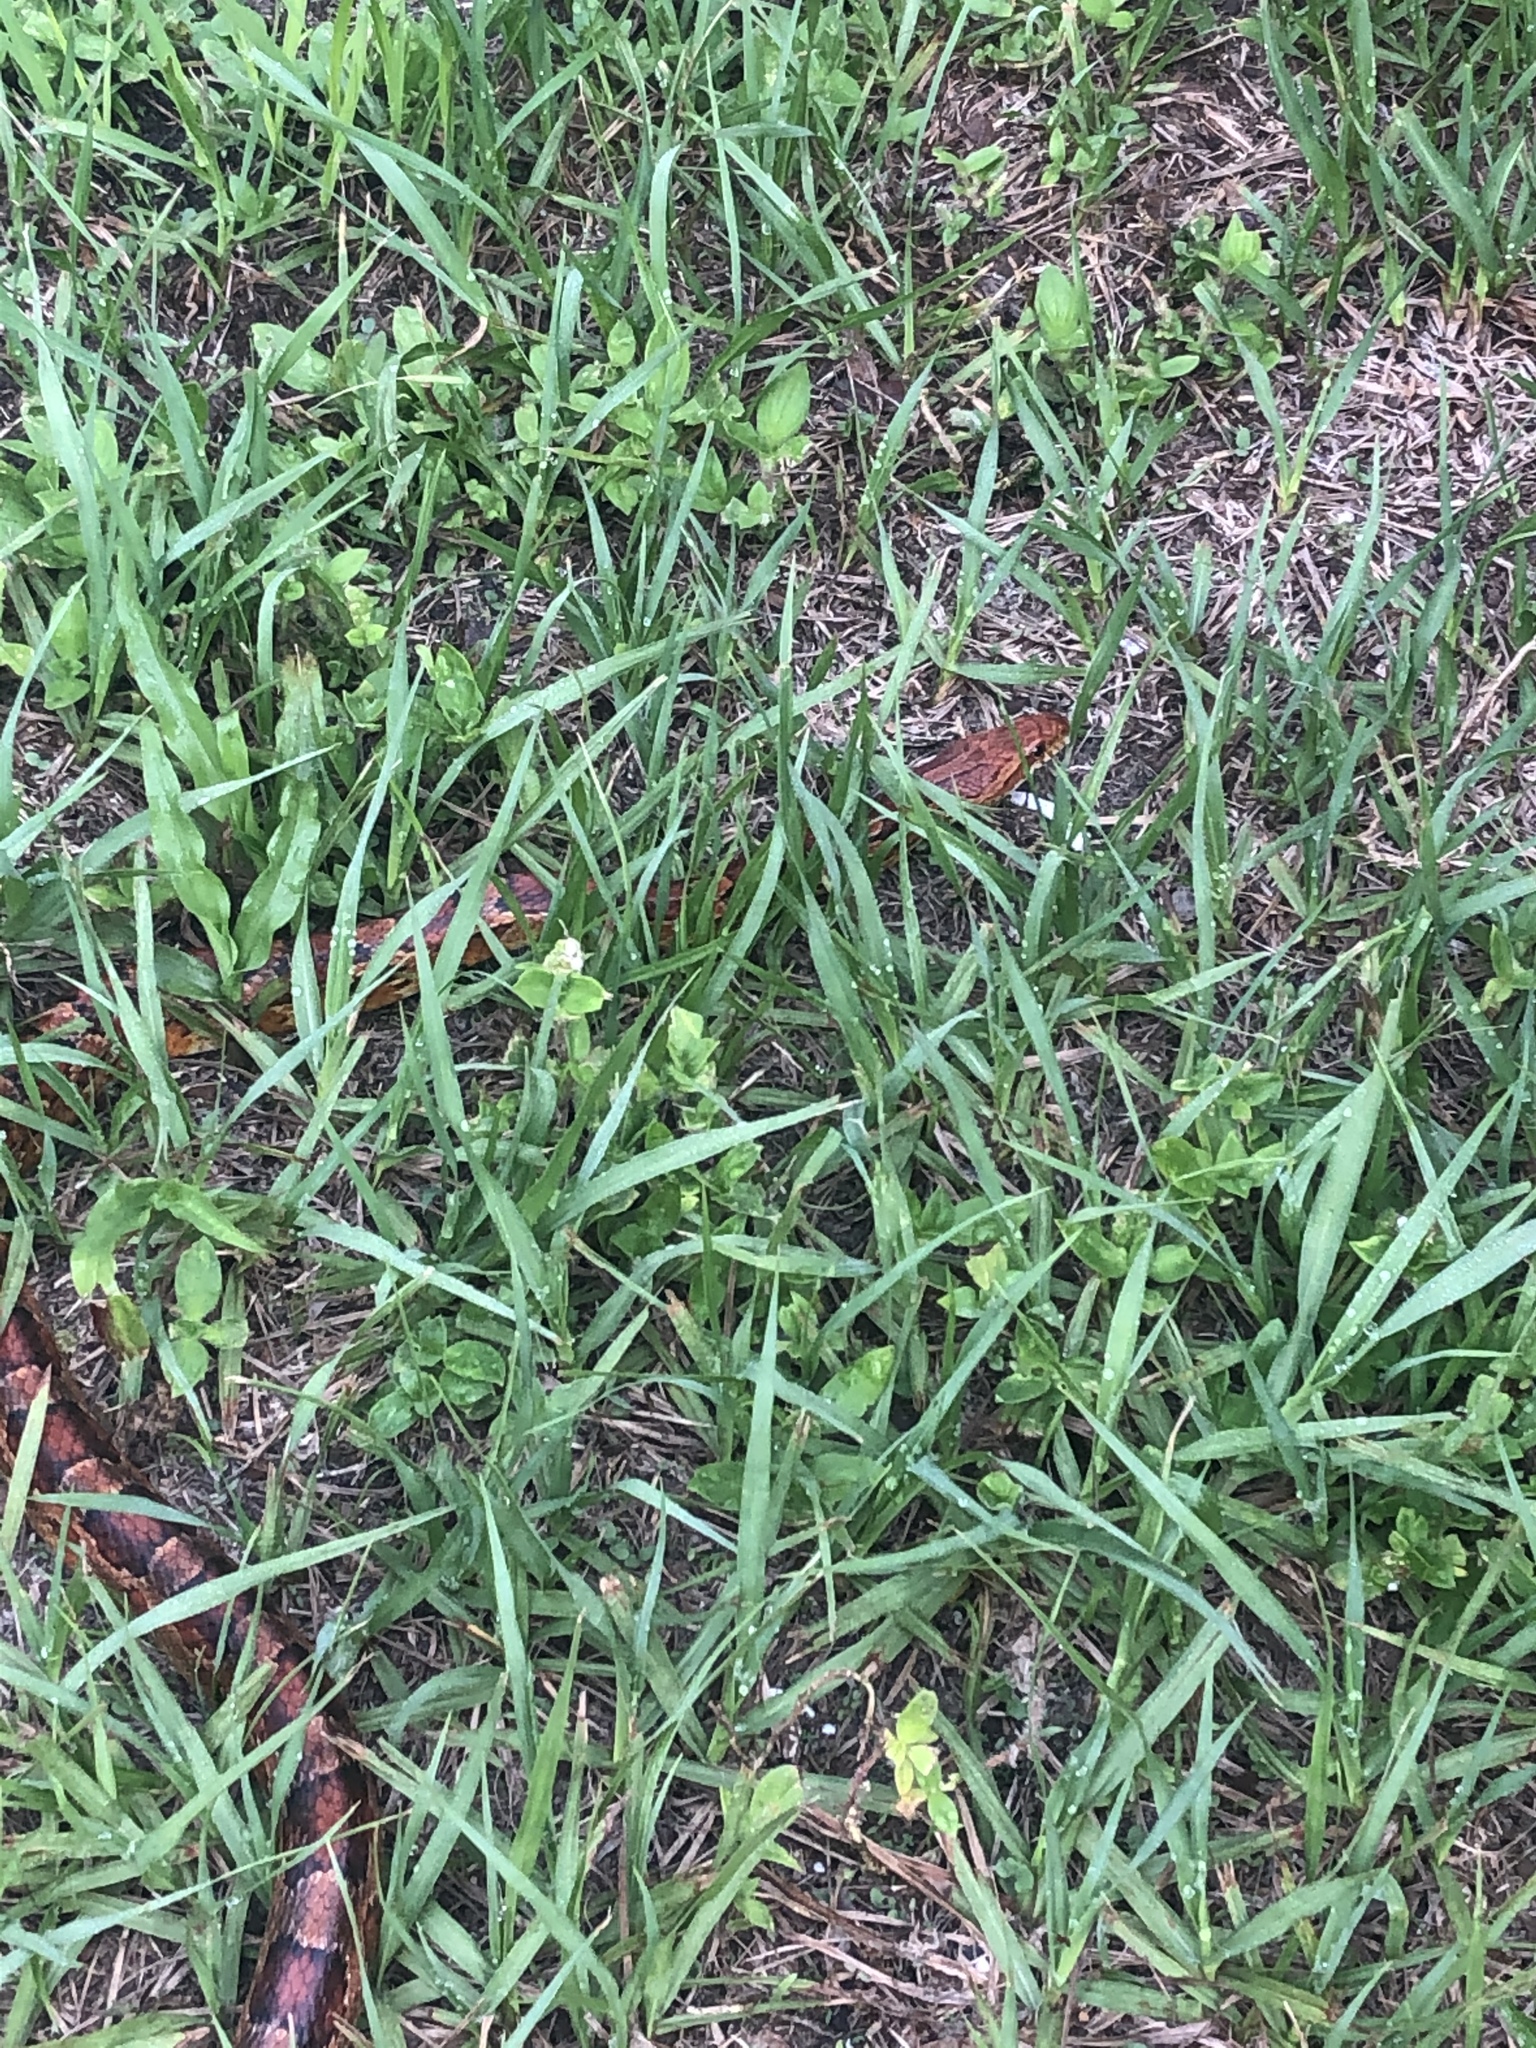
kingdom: Animalia
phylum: Chordata
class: Squamata
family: Colubridae
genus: Pantherophis
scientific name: Pantherophis guttatus
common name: Red cornsnake
